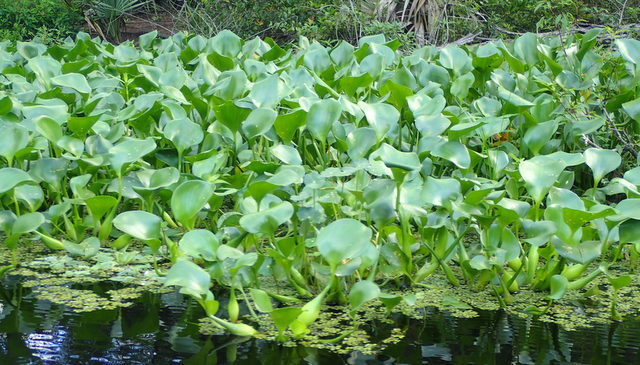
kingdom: Plantae
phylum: Tracheophyta
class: Liliopsida
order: Commelinales
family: Pontederiaceae
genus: Pontederia
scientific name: Pontederia crassipes
